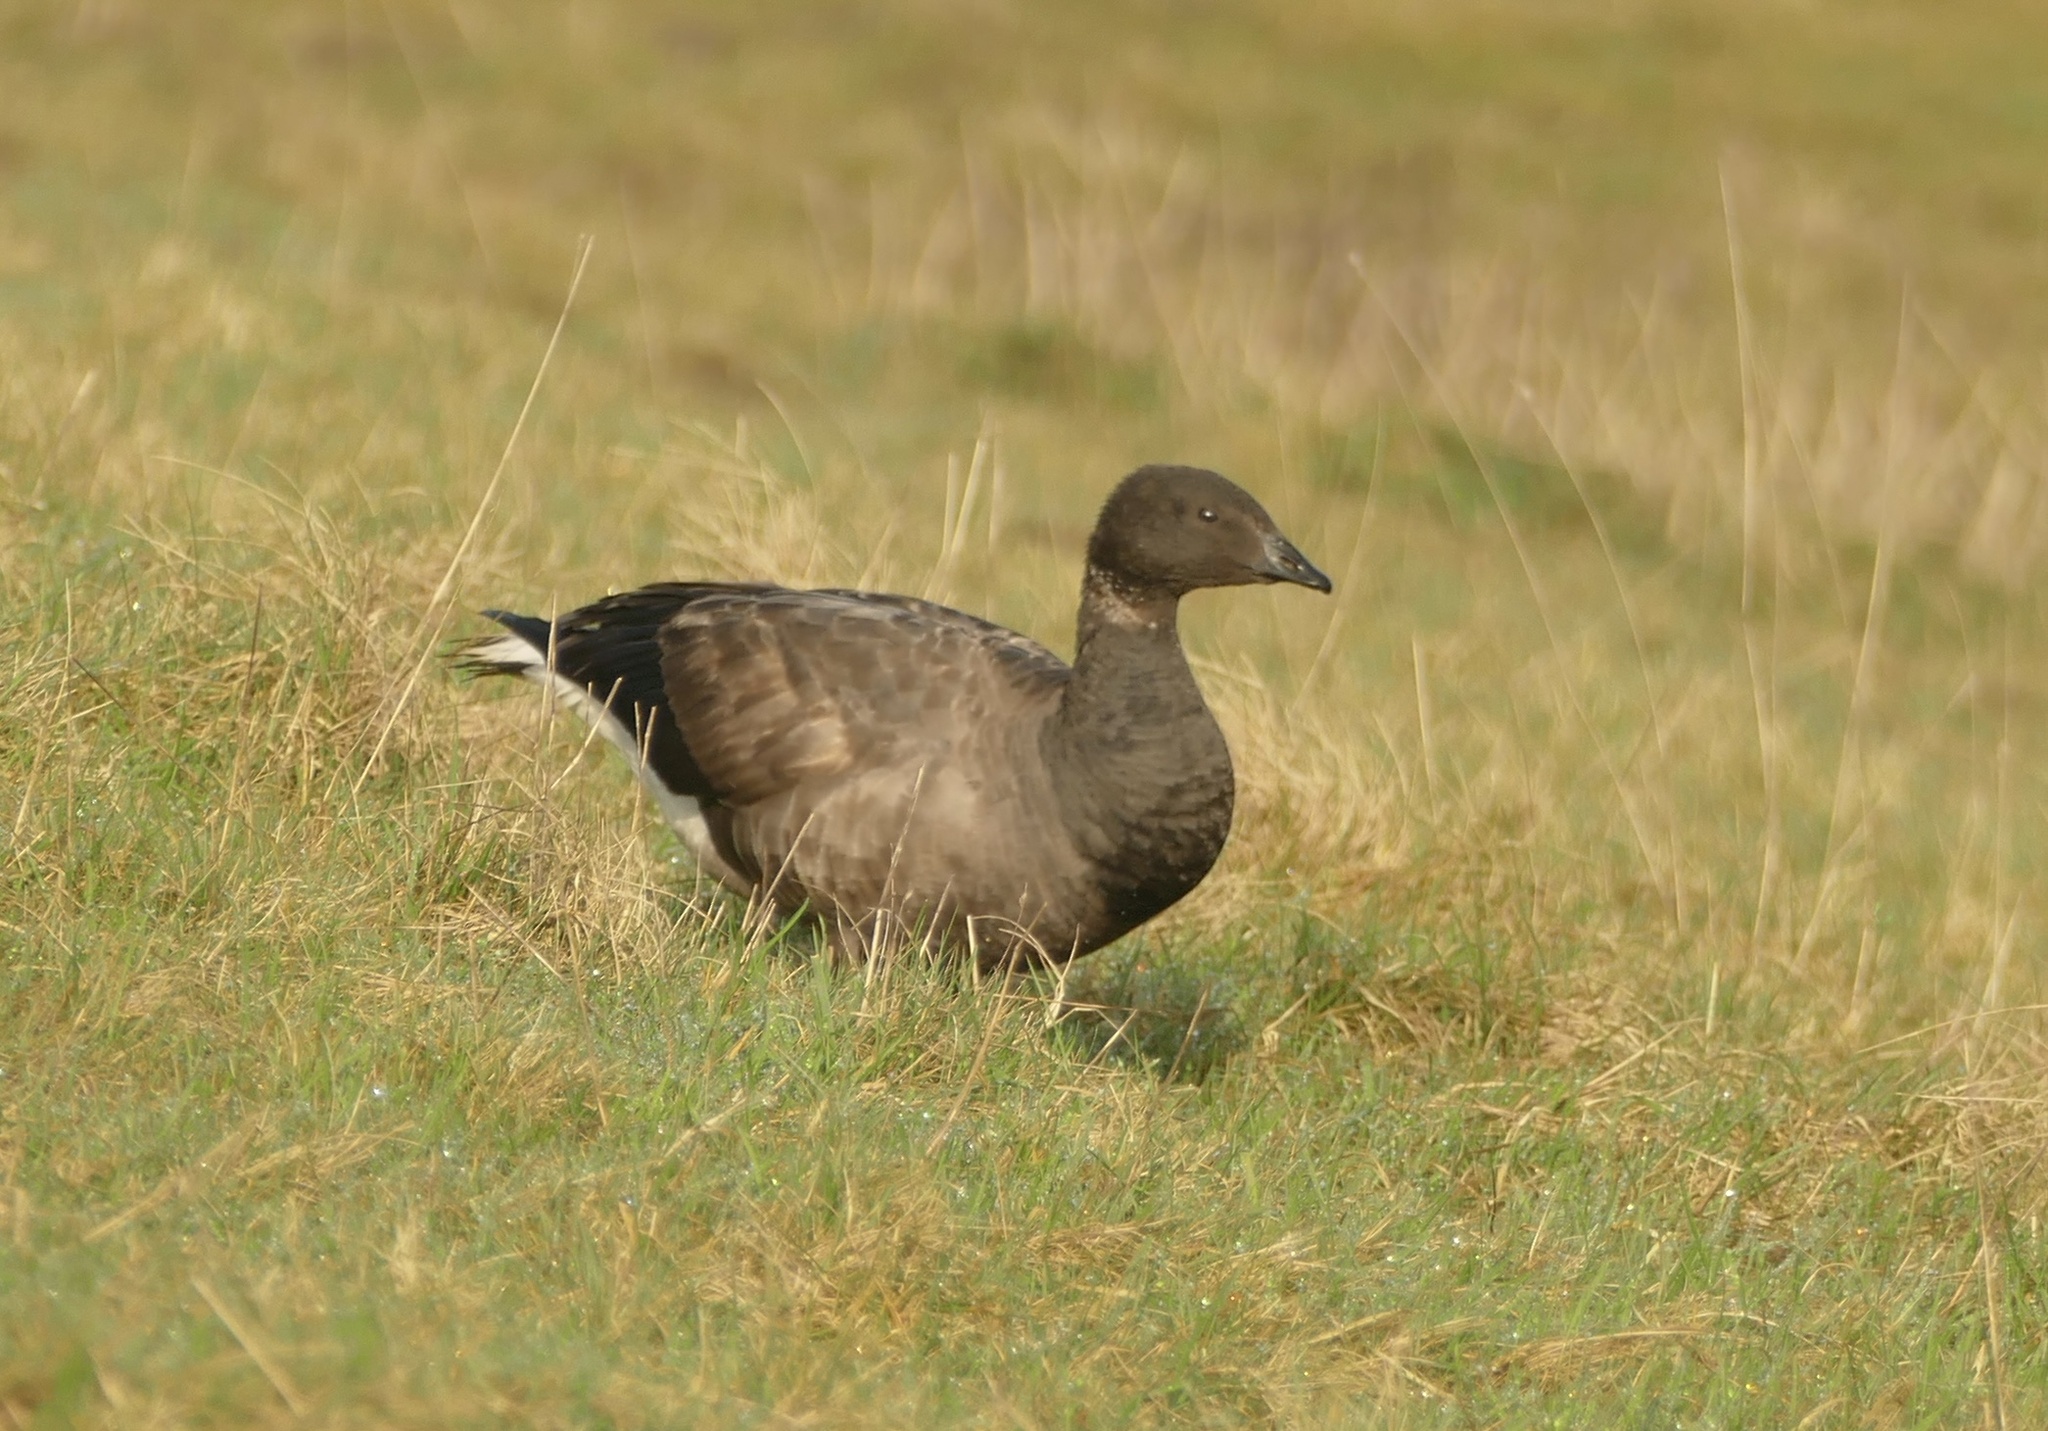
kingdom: Animalia
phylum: Chordata
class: Aves
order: Anseriformes
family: Anatidae
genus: Branta
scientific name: Branta bernicla
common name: Brant goose
